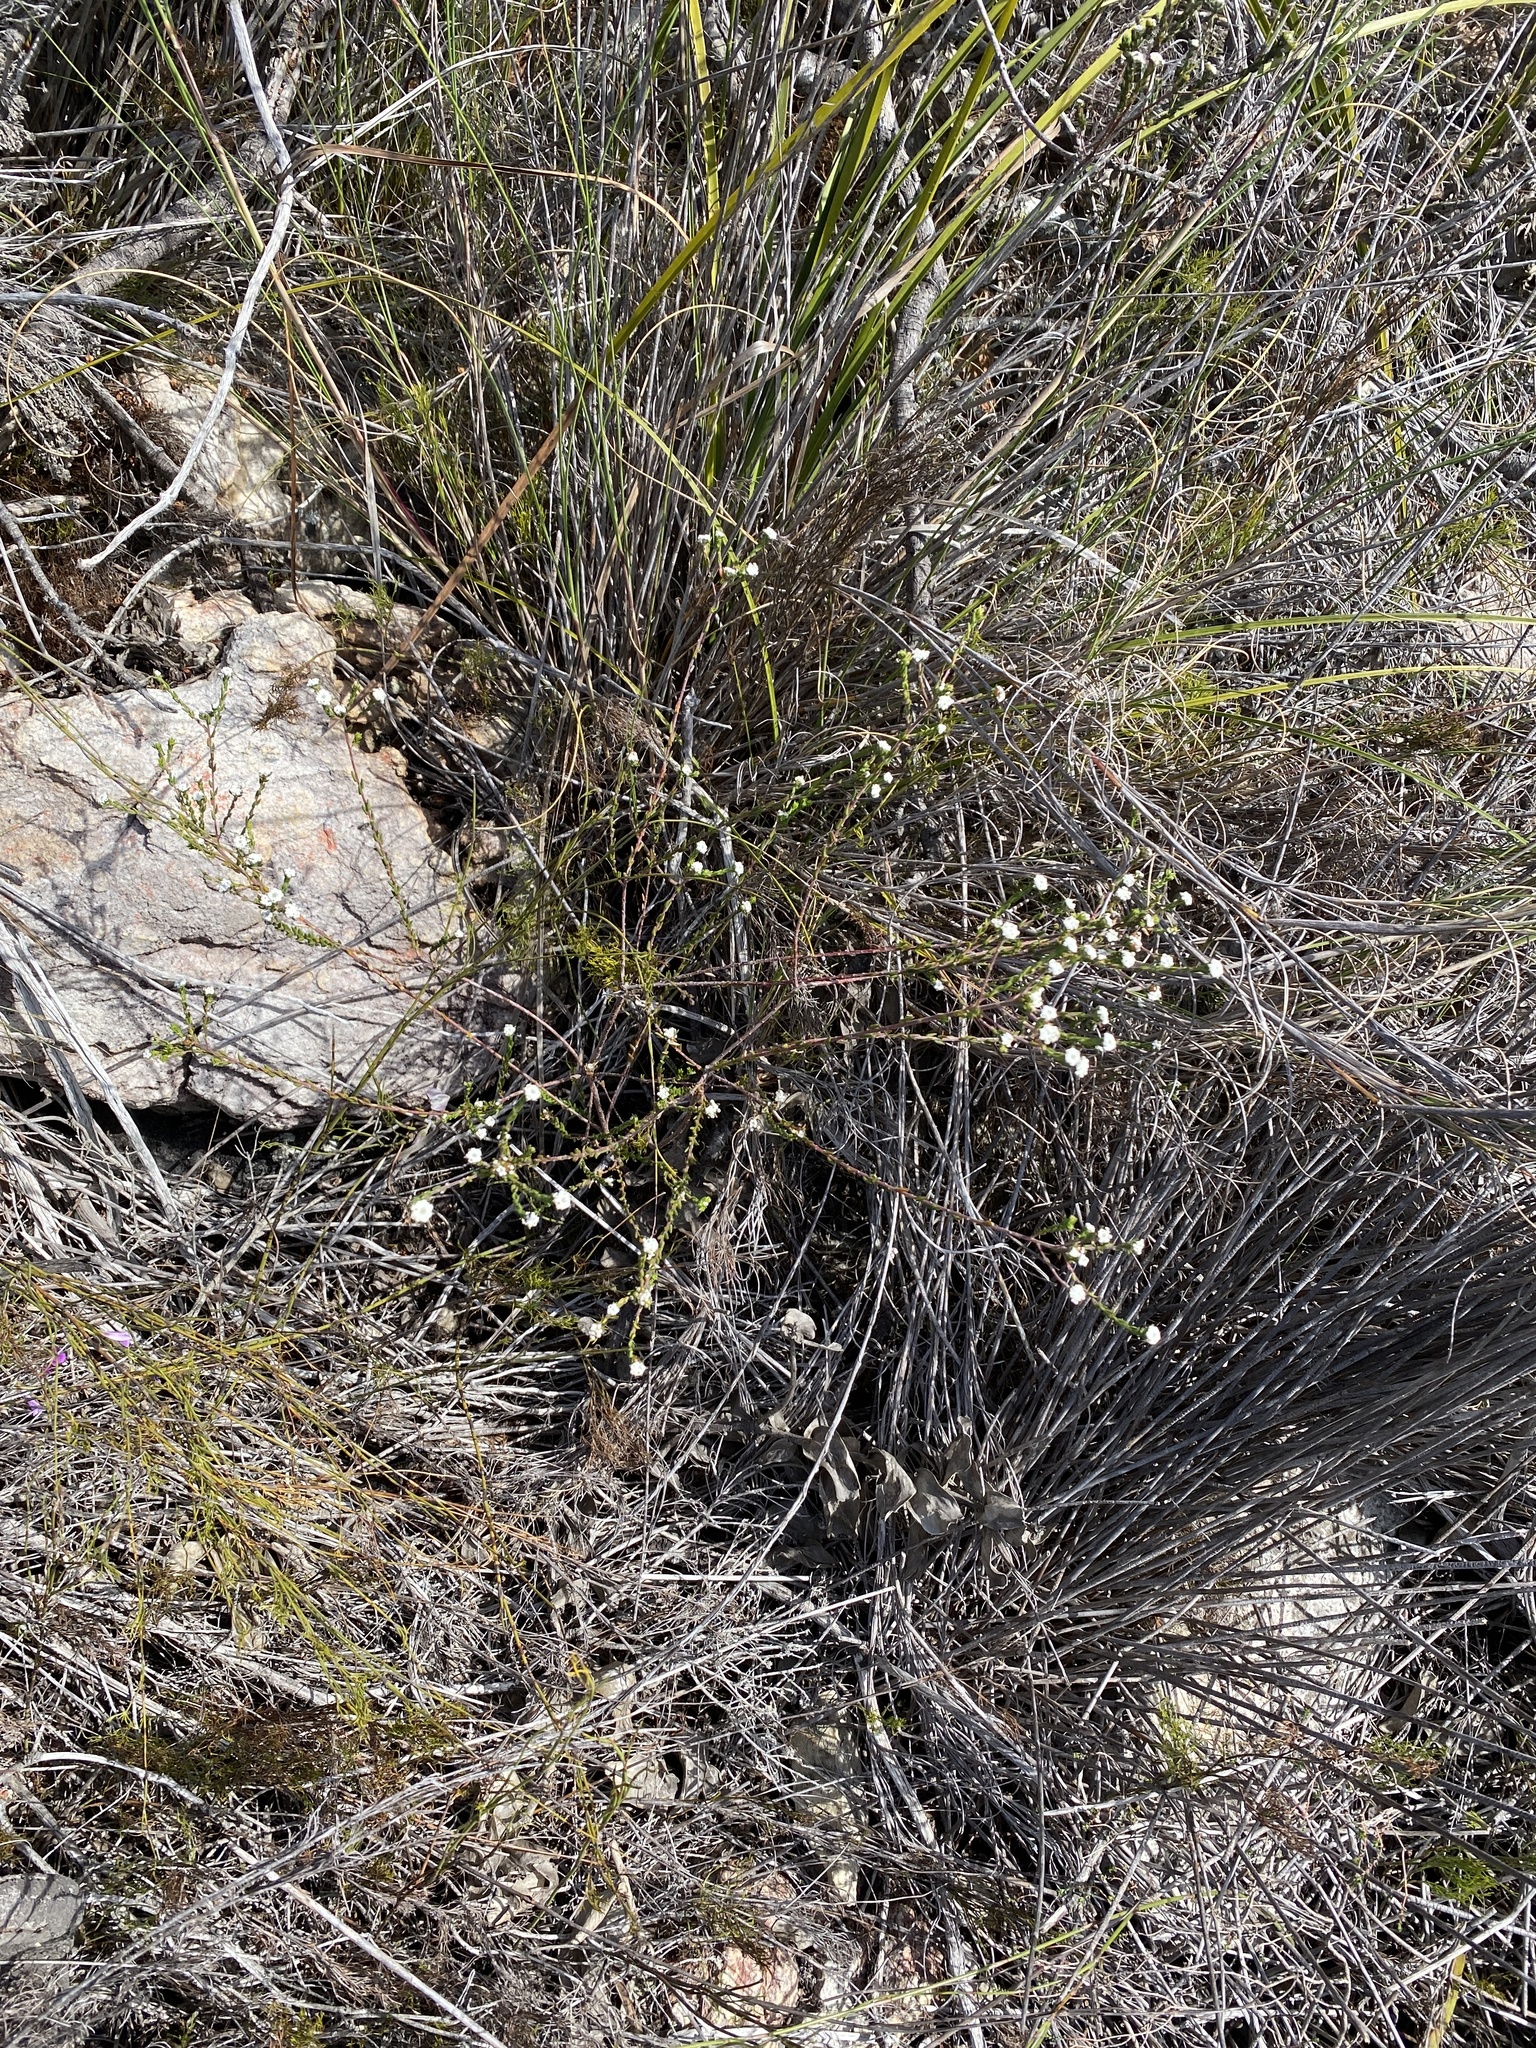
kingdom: Plantae
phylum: Tracheophyta
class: Magnoliopsida
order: Rosales
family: Rhamnaceae
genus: Phylica
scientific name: Phylica floribunda
